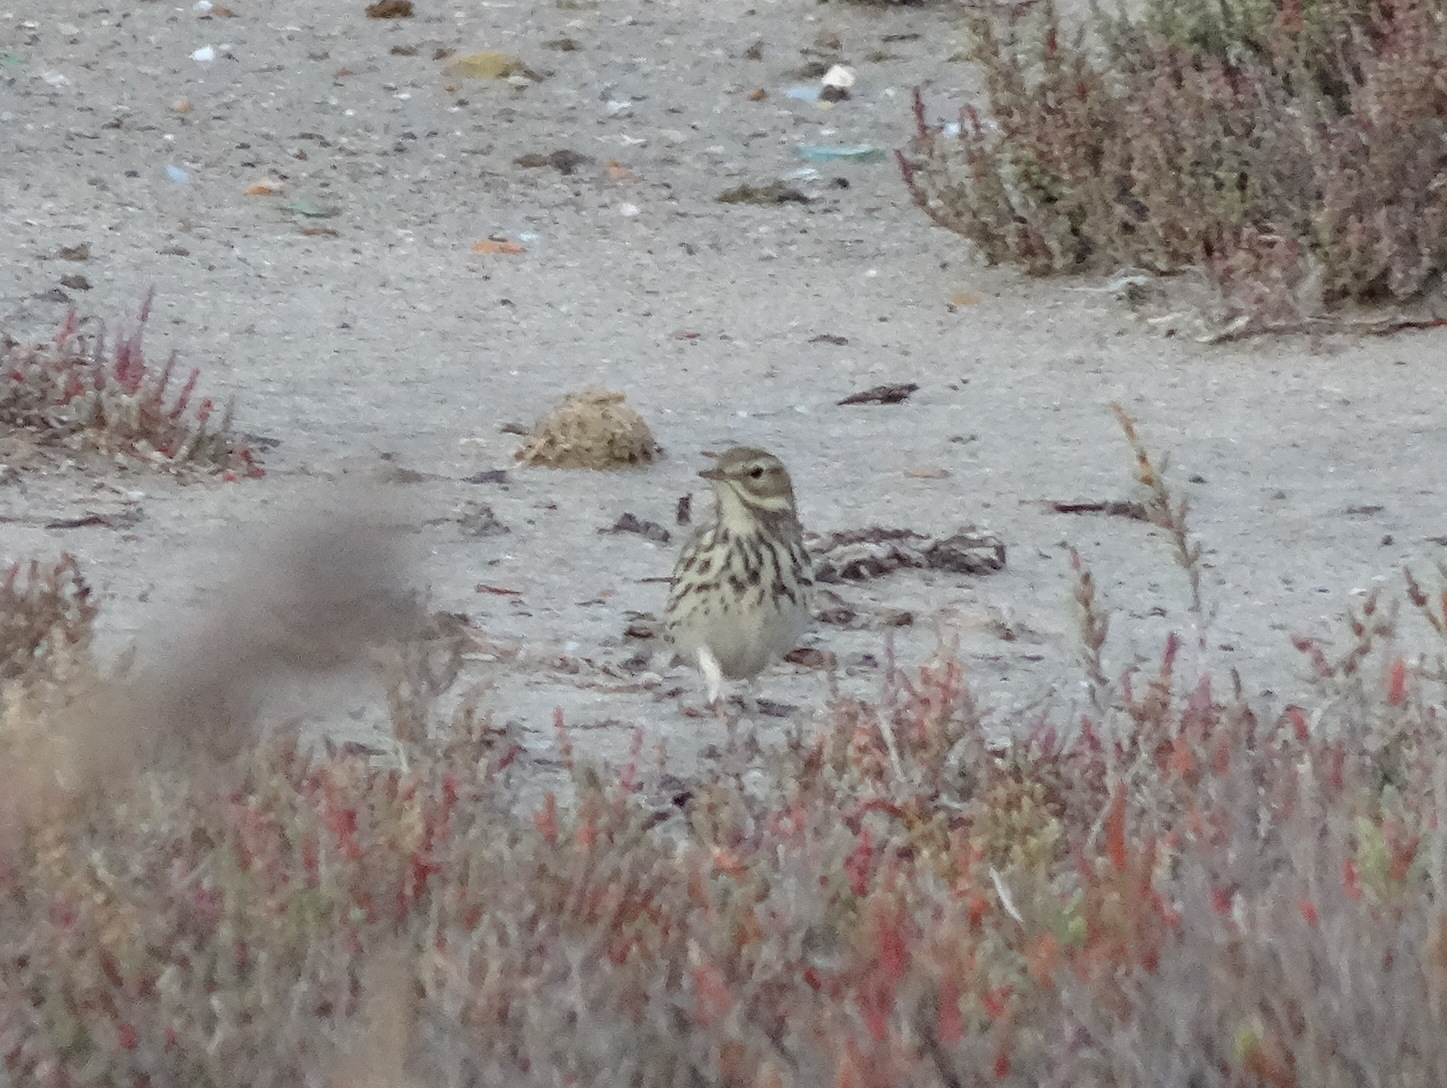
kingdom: Animalia
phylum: Chordata
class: Aves
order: Passeriformes
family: Motacillidae
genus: Anthus
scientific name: Anthus pratensis
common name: Meadow pipit
